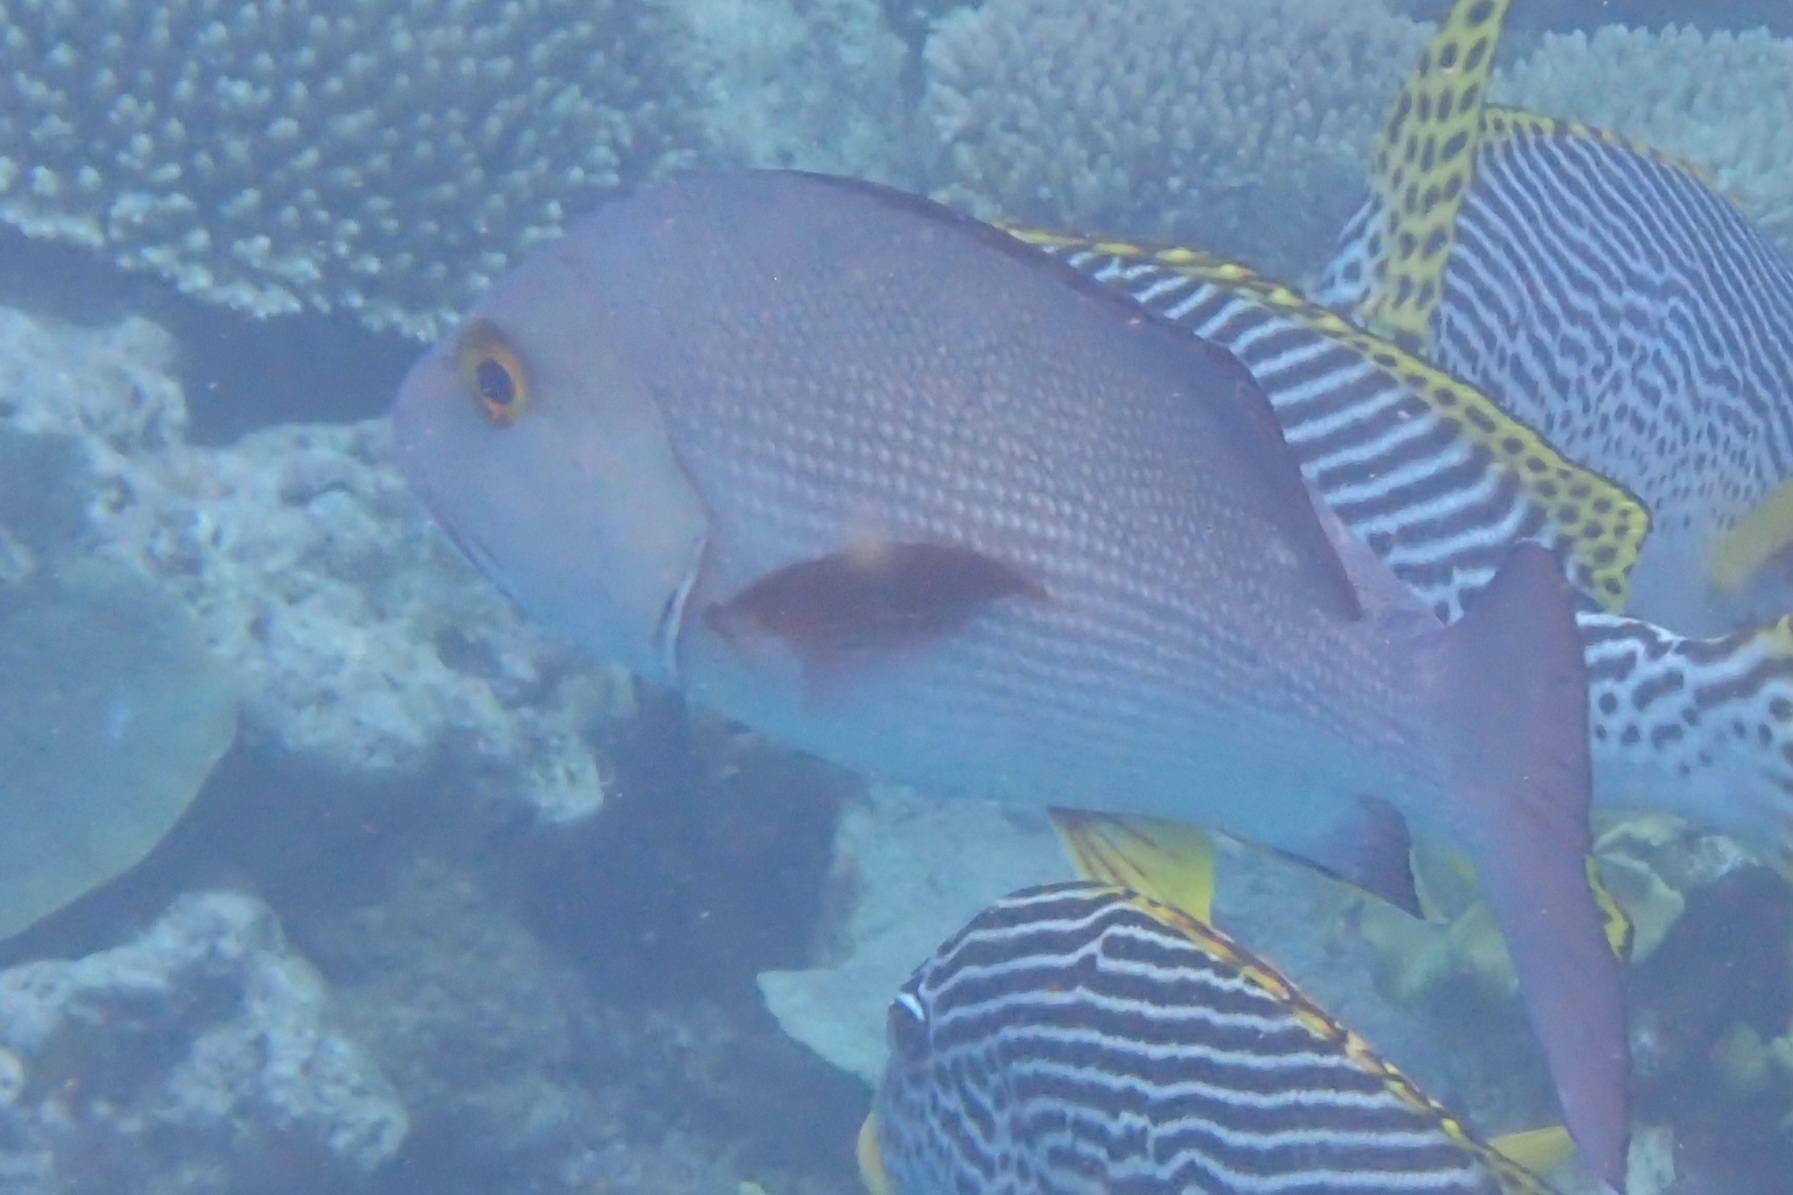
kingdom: Animalia
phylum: Chordata
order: Perciformes
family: Lutjanidae
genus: Lutjanus
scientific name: Lutjanus bohar
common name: Red bass
